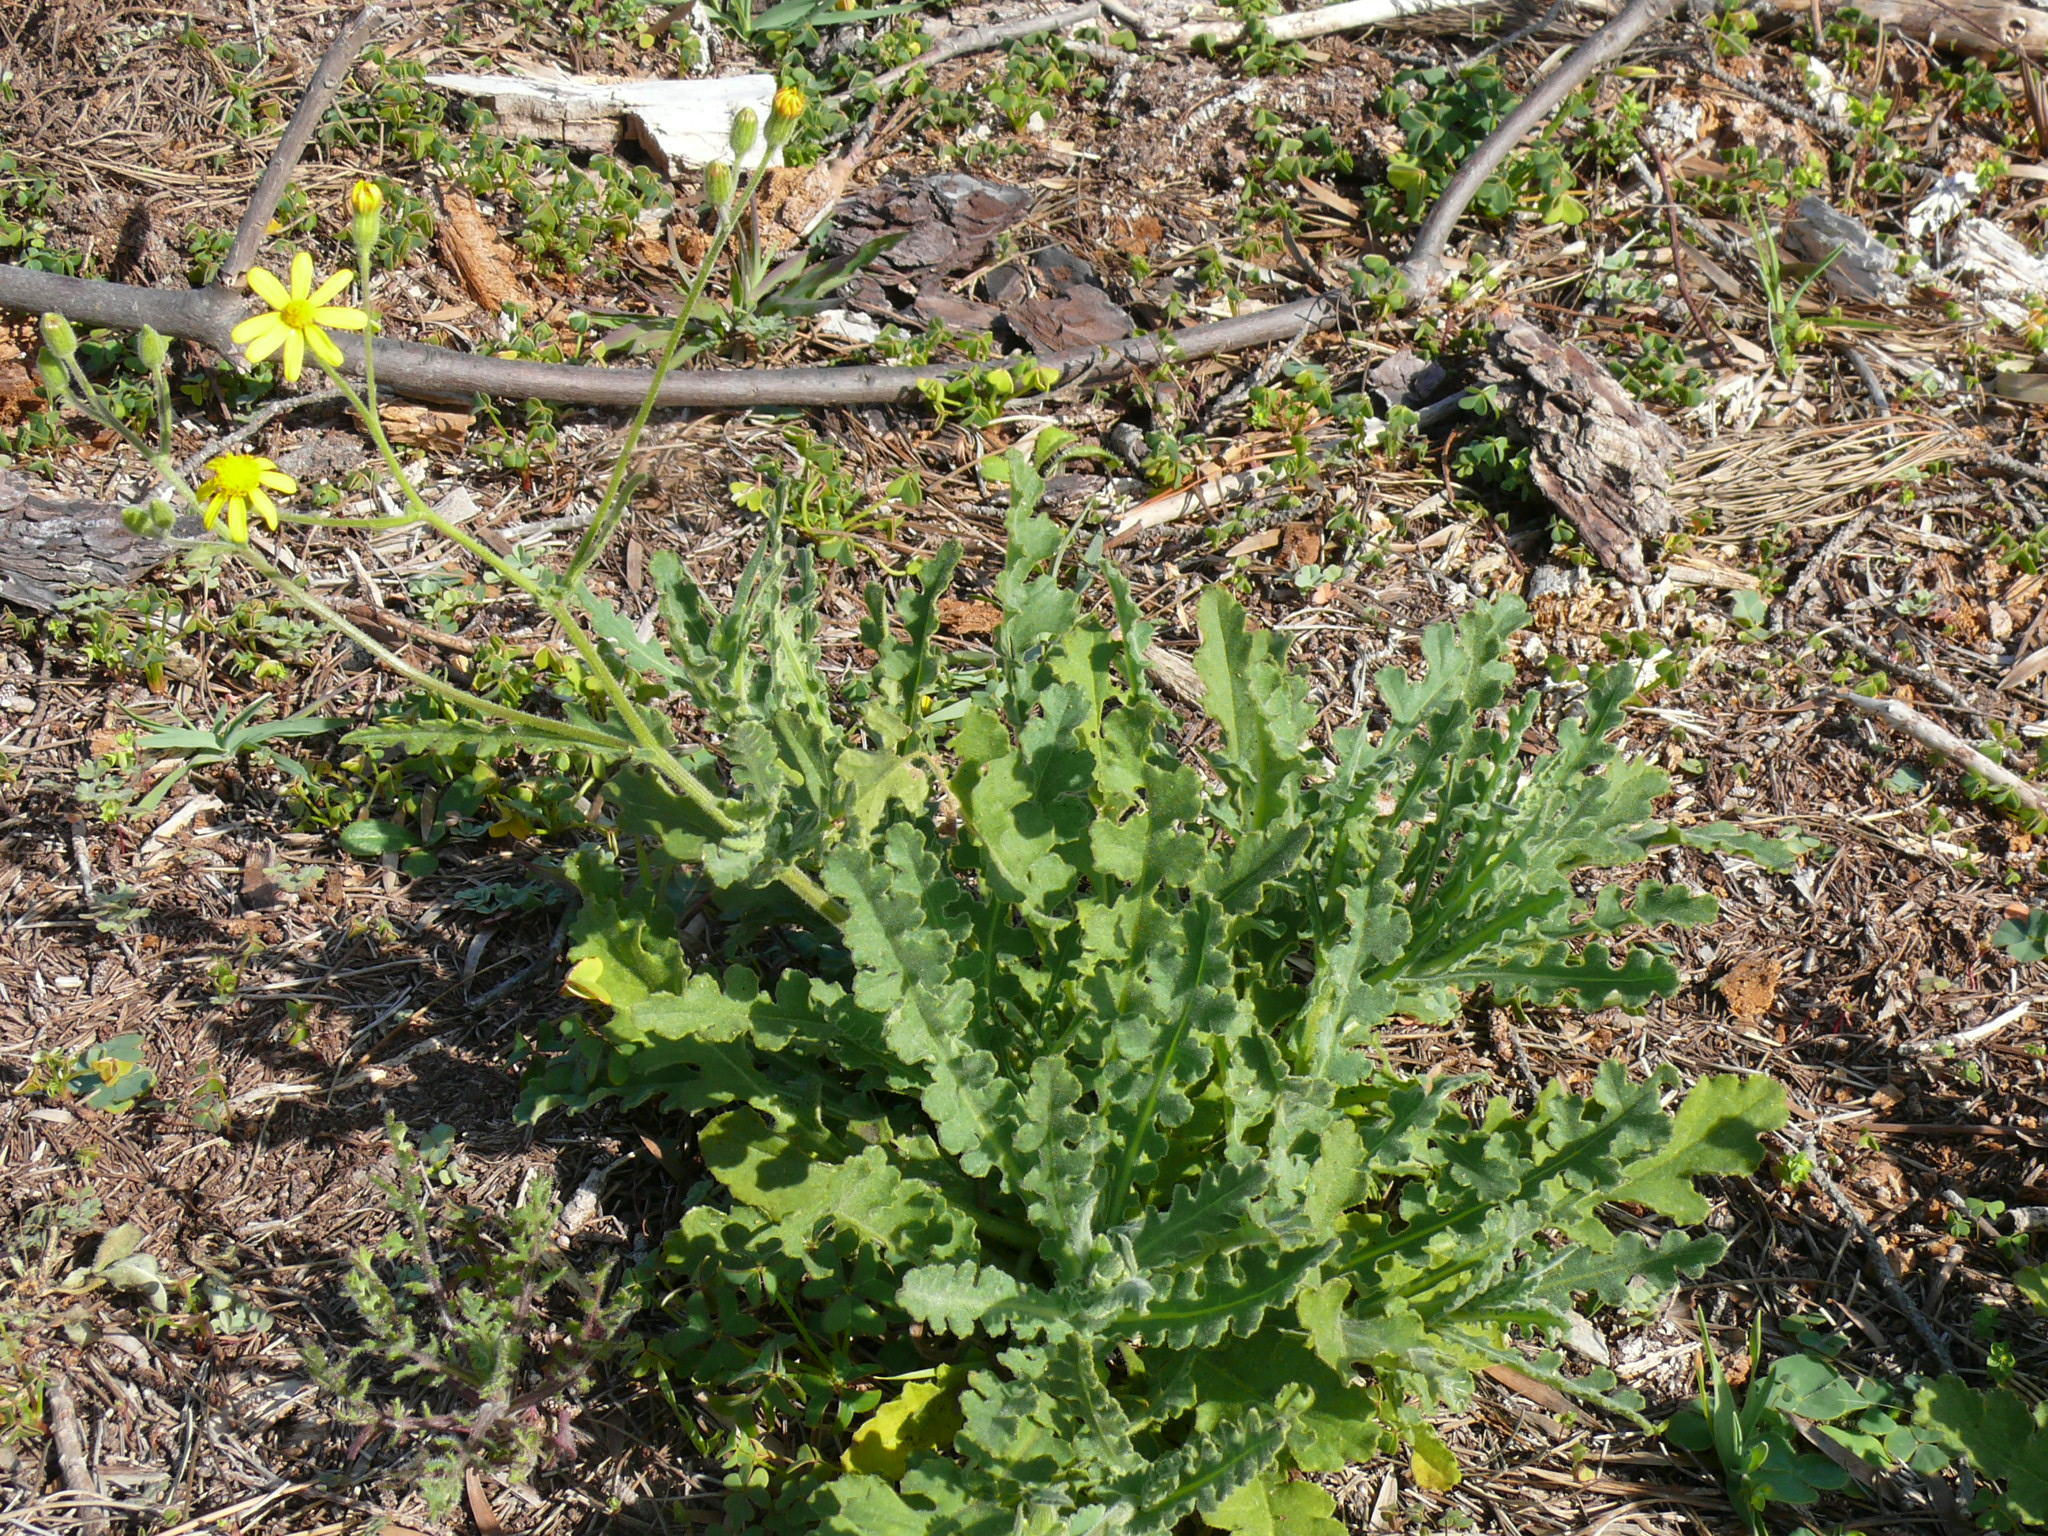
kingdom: Plantae
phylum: Tracheophyta
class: Magnoliopsida
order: Asterales
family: Asteraceae
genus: Senecio
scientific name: Senecio hastatus
